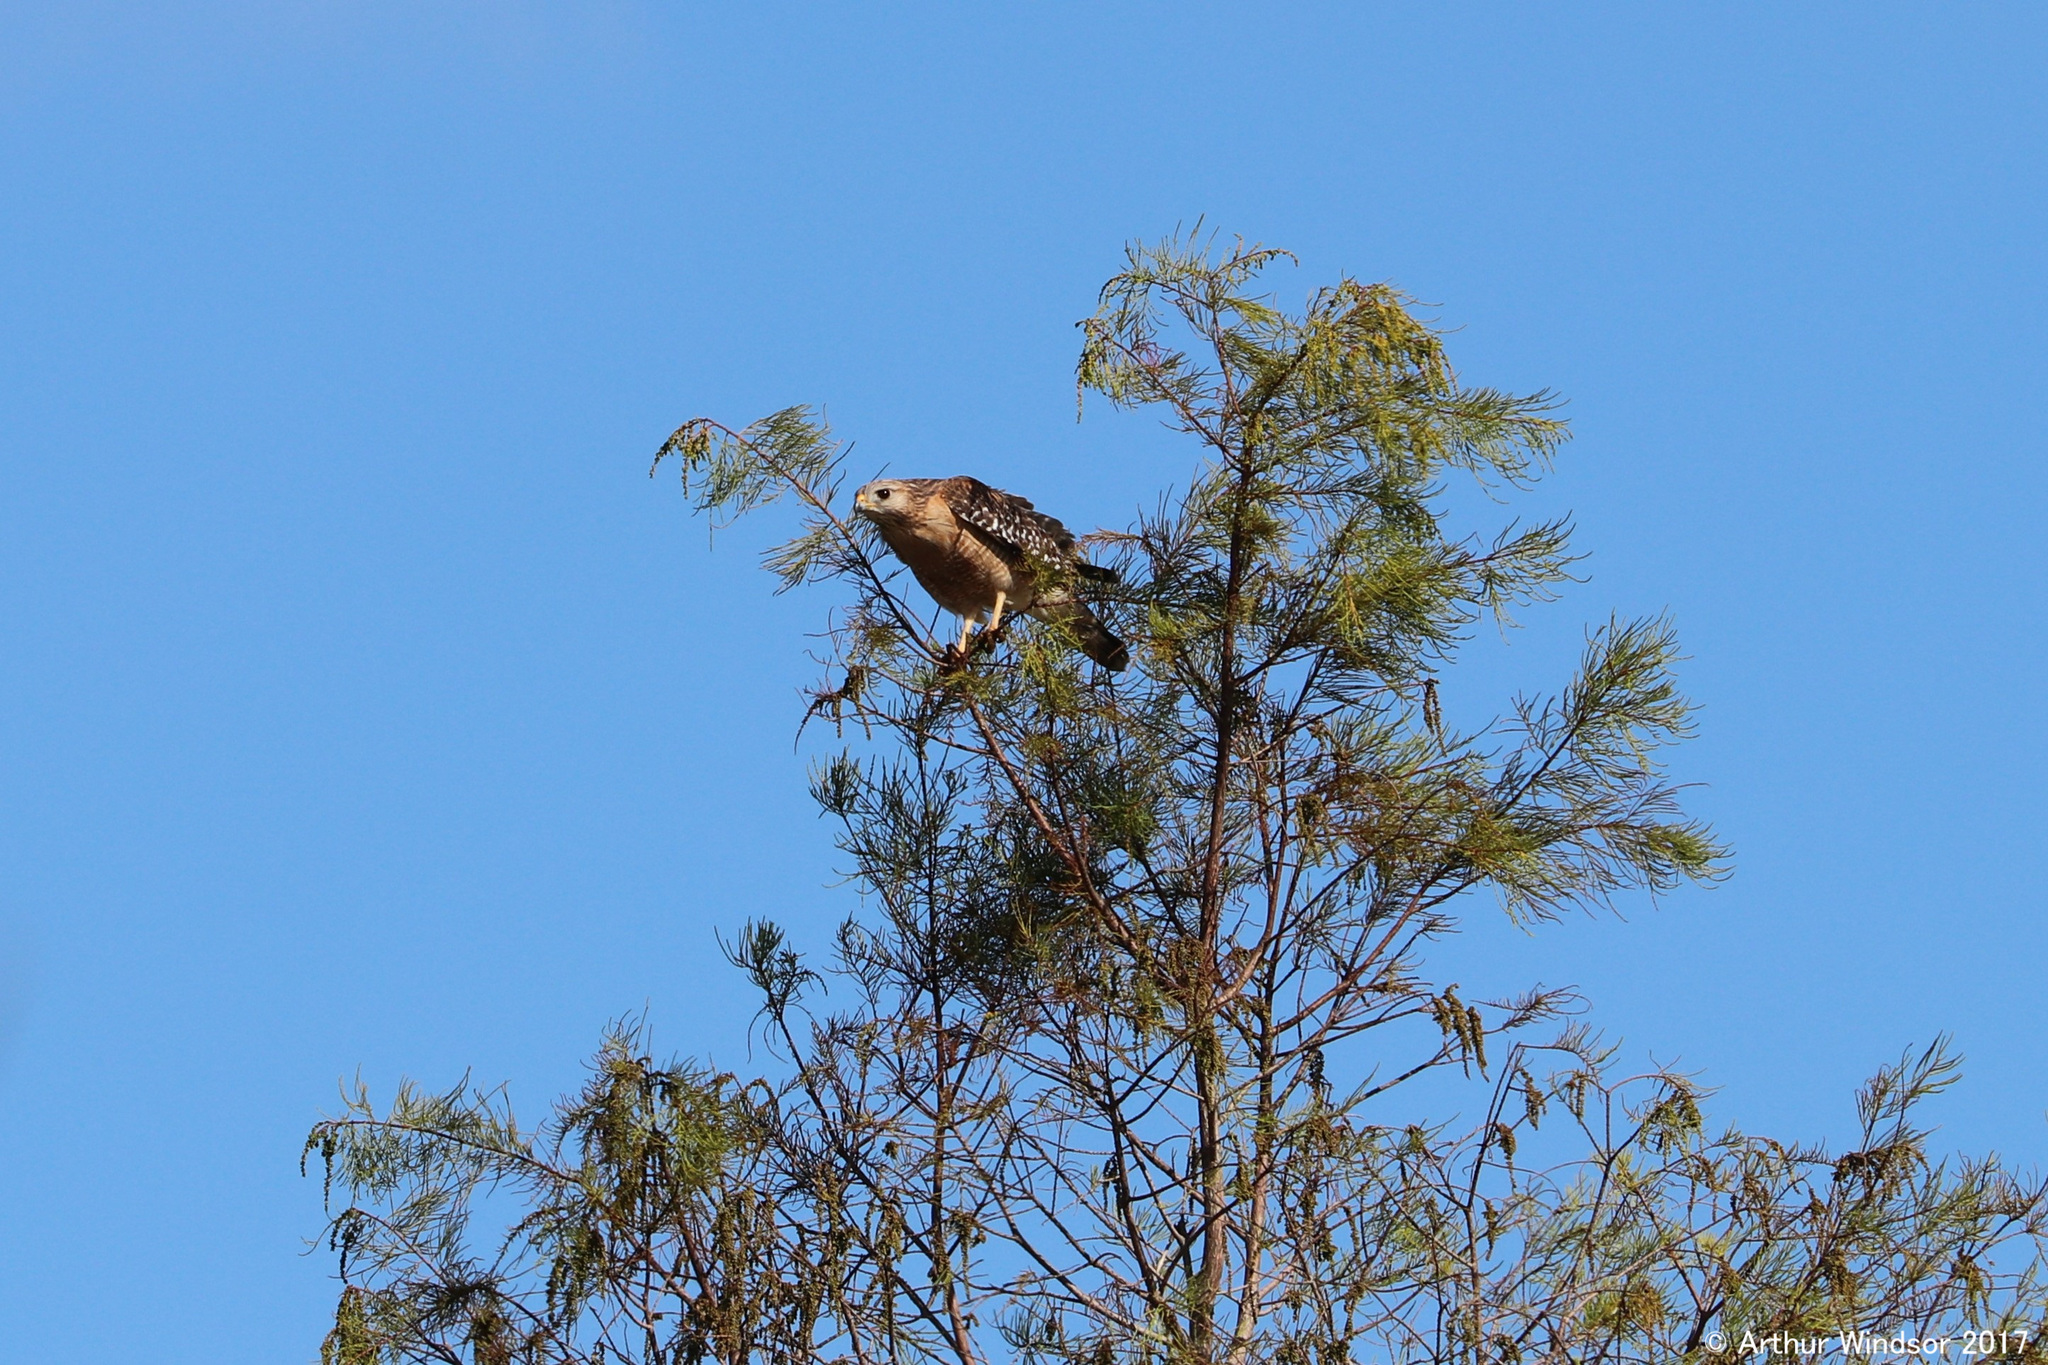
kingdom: Animalia
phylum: Chordata
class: Aves
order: Accipitriformes
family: Accipitridae
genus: Buteo
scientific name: Buteo lineatus
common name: Red-shouldered hawk
